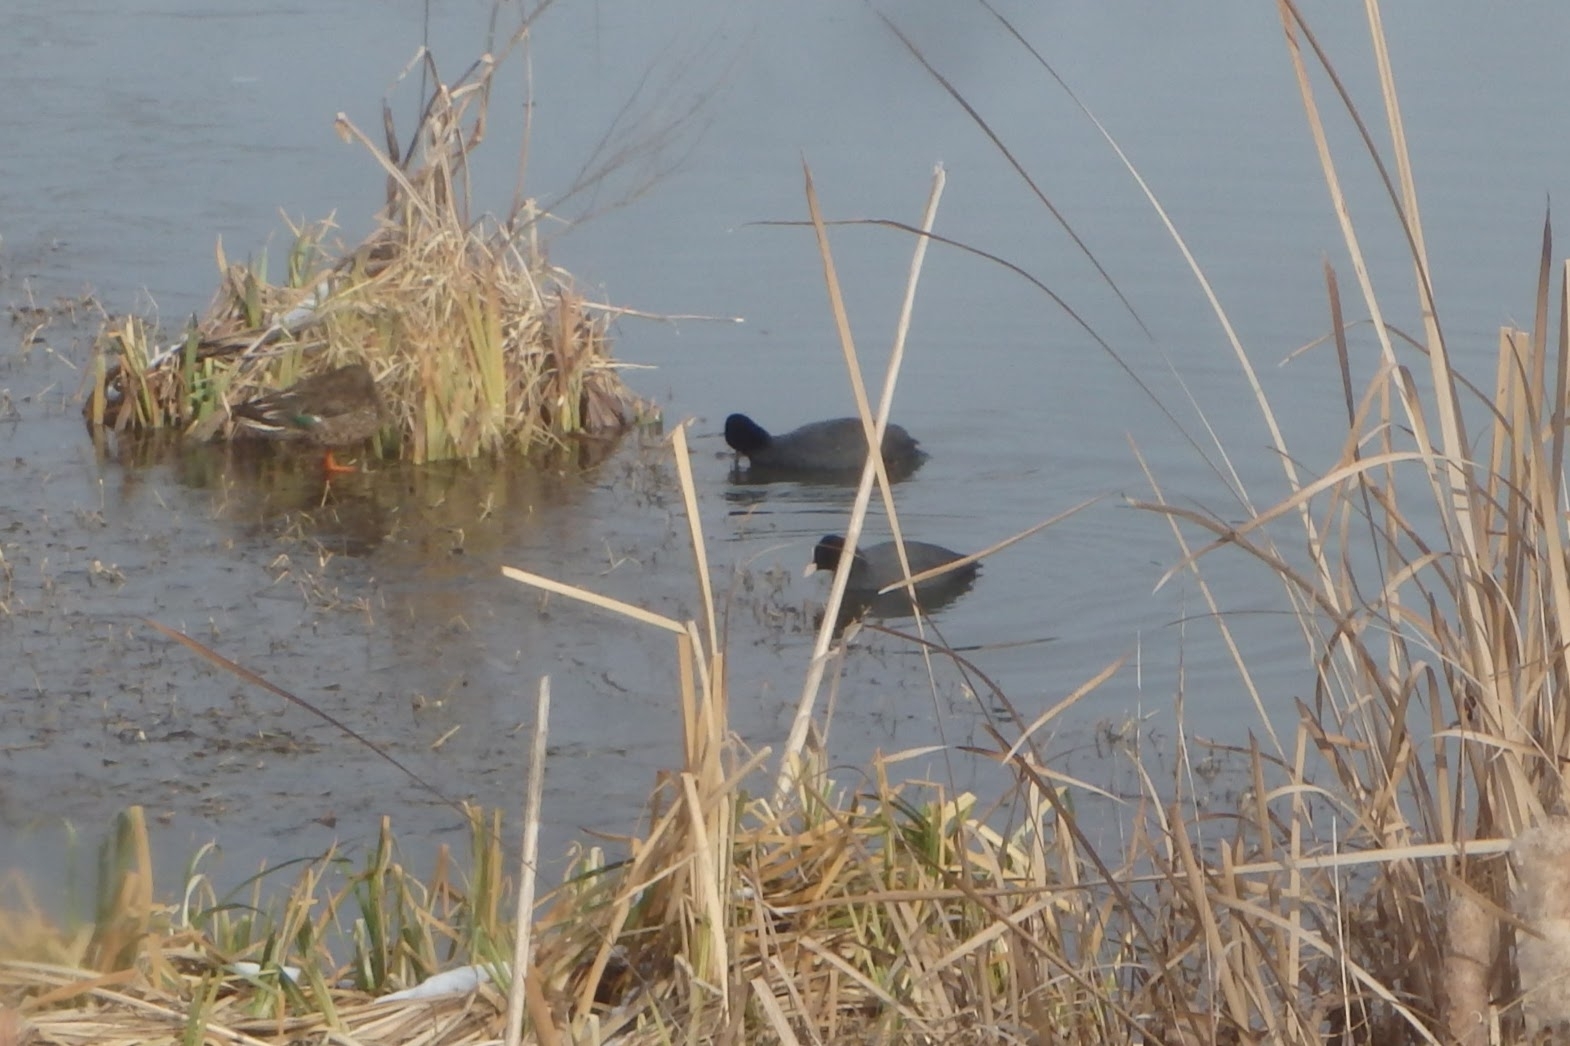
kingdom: Animalia
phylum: Chordata
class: Aves
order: Gruiformes
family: Rallidae
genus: Fulica
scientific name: Fulica atra
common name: Eurasian coot
